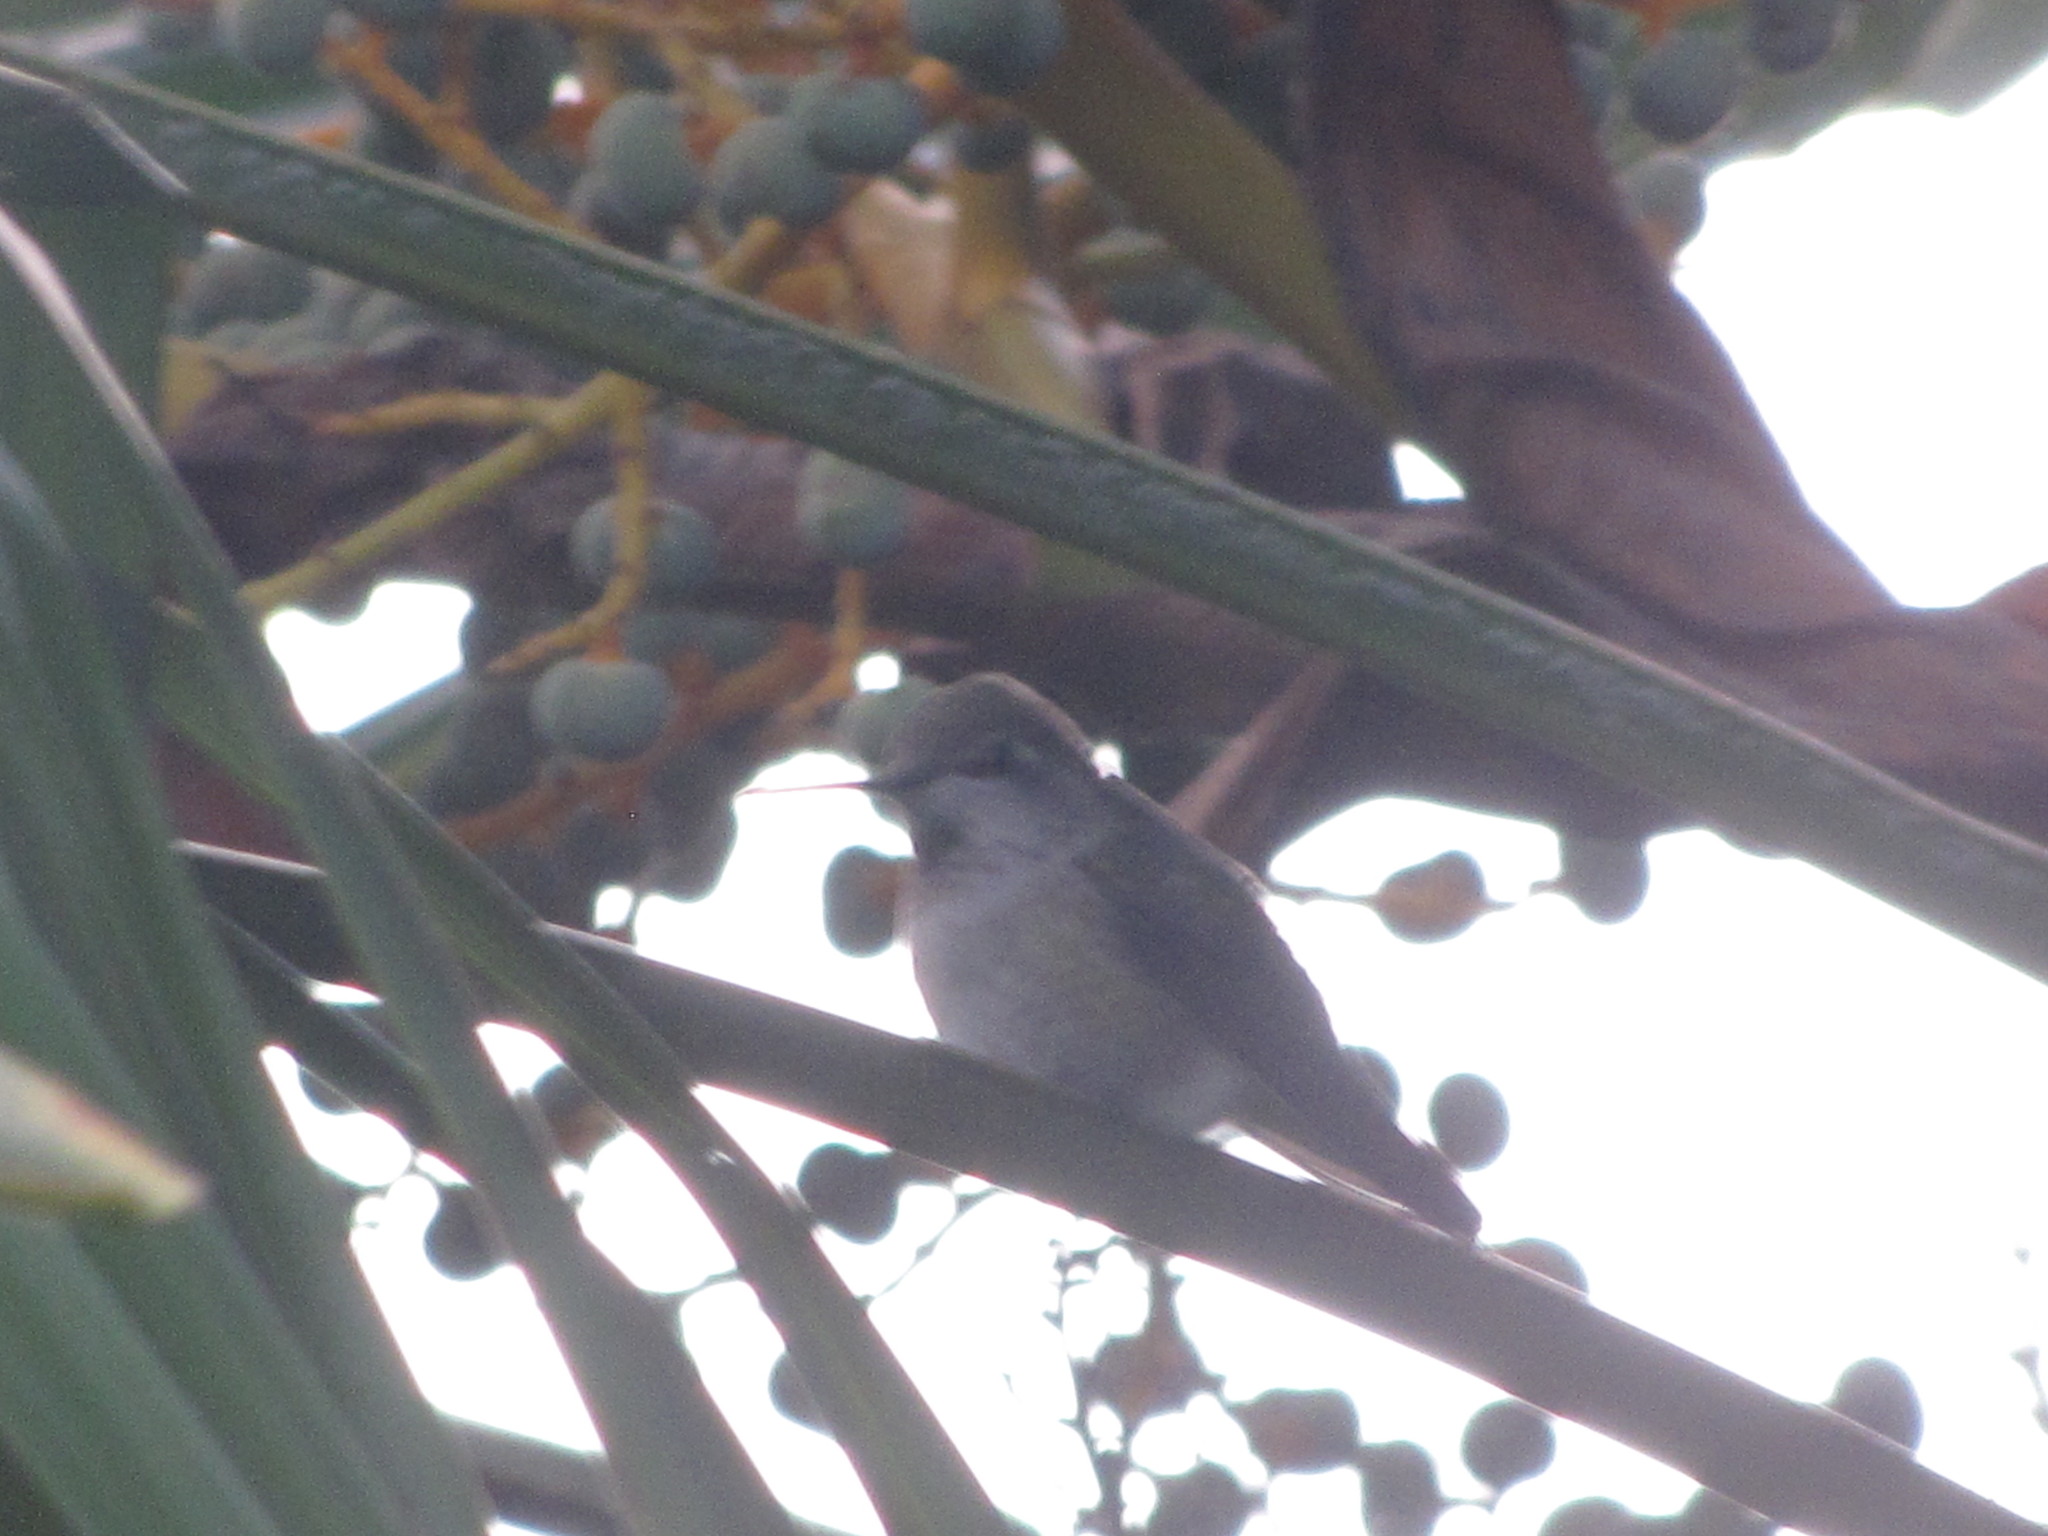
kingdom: Animalia
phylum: Chordata
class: Aves
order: Apodiformes
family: Trochilidae
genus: Calypte
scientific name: Calypte anna
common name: Anna's hummingbird
